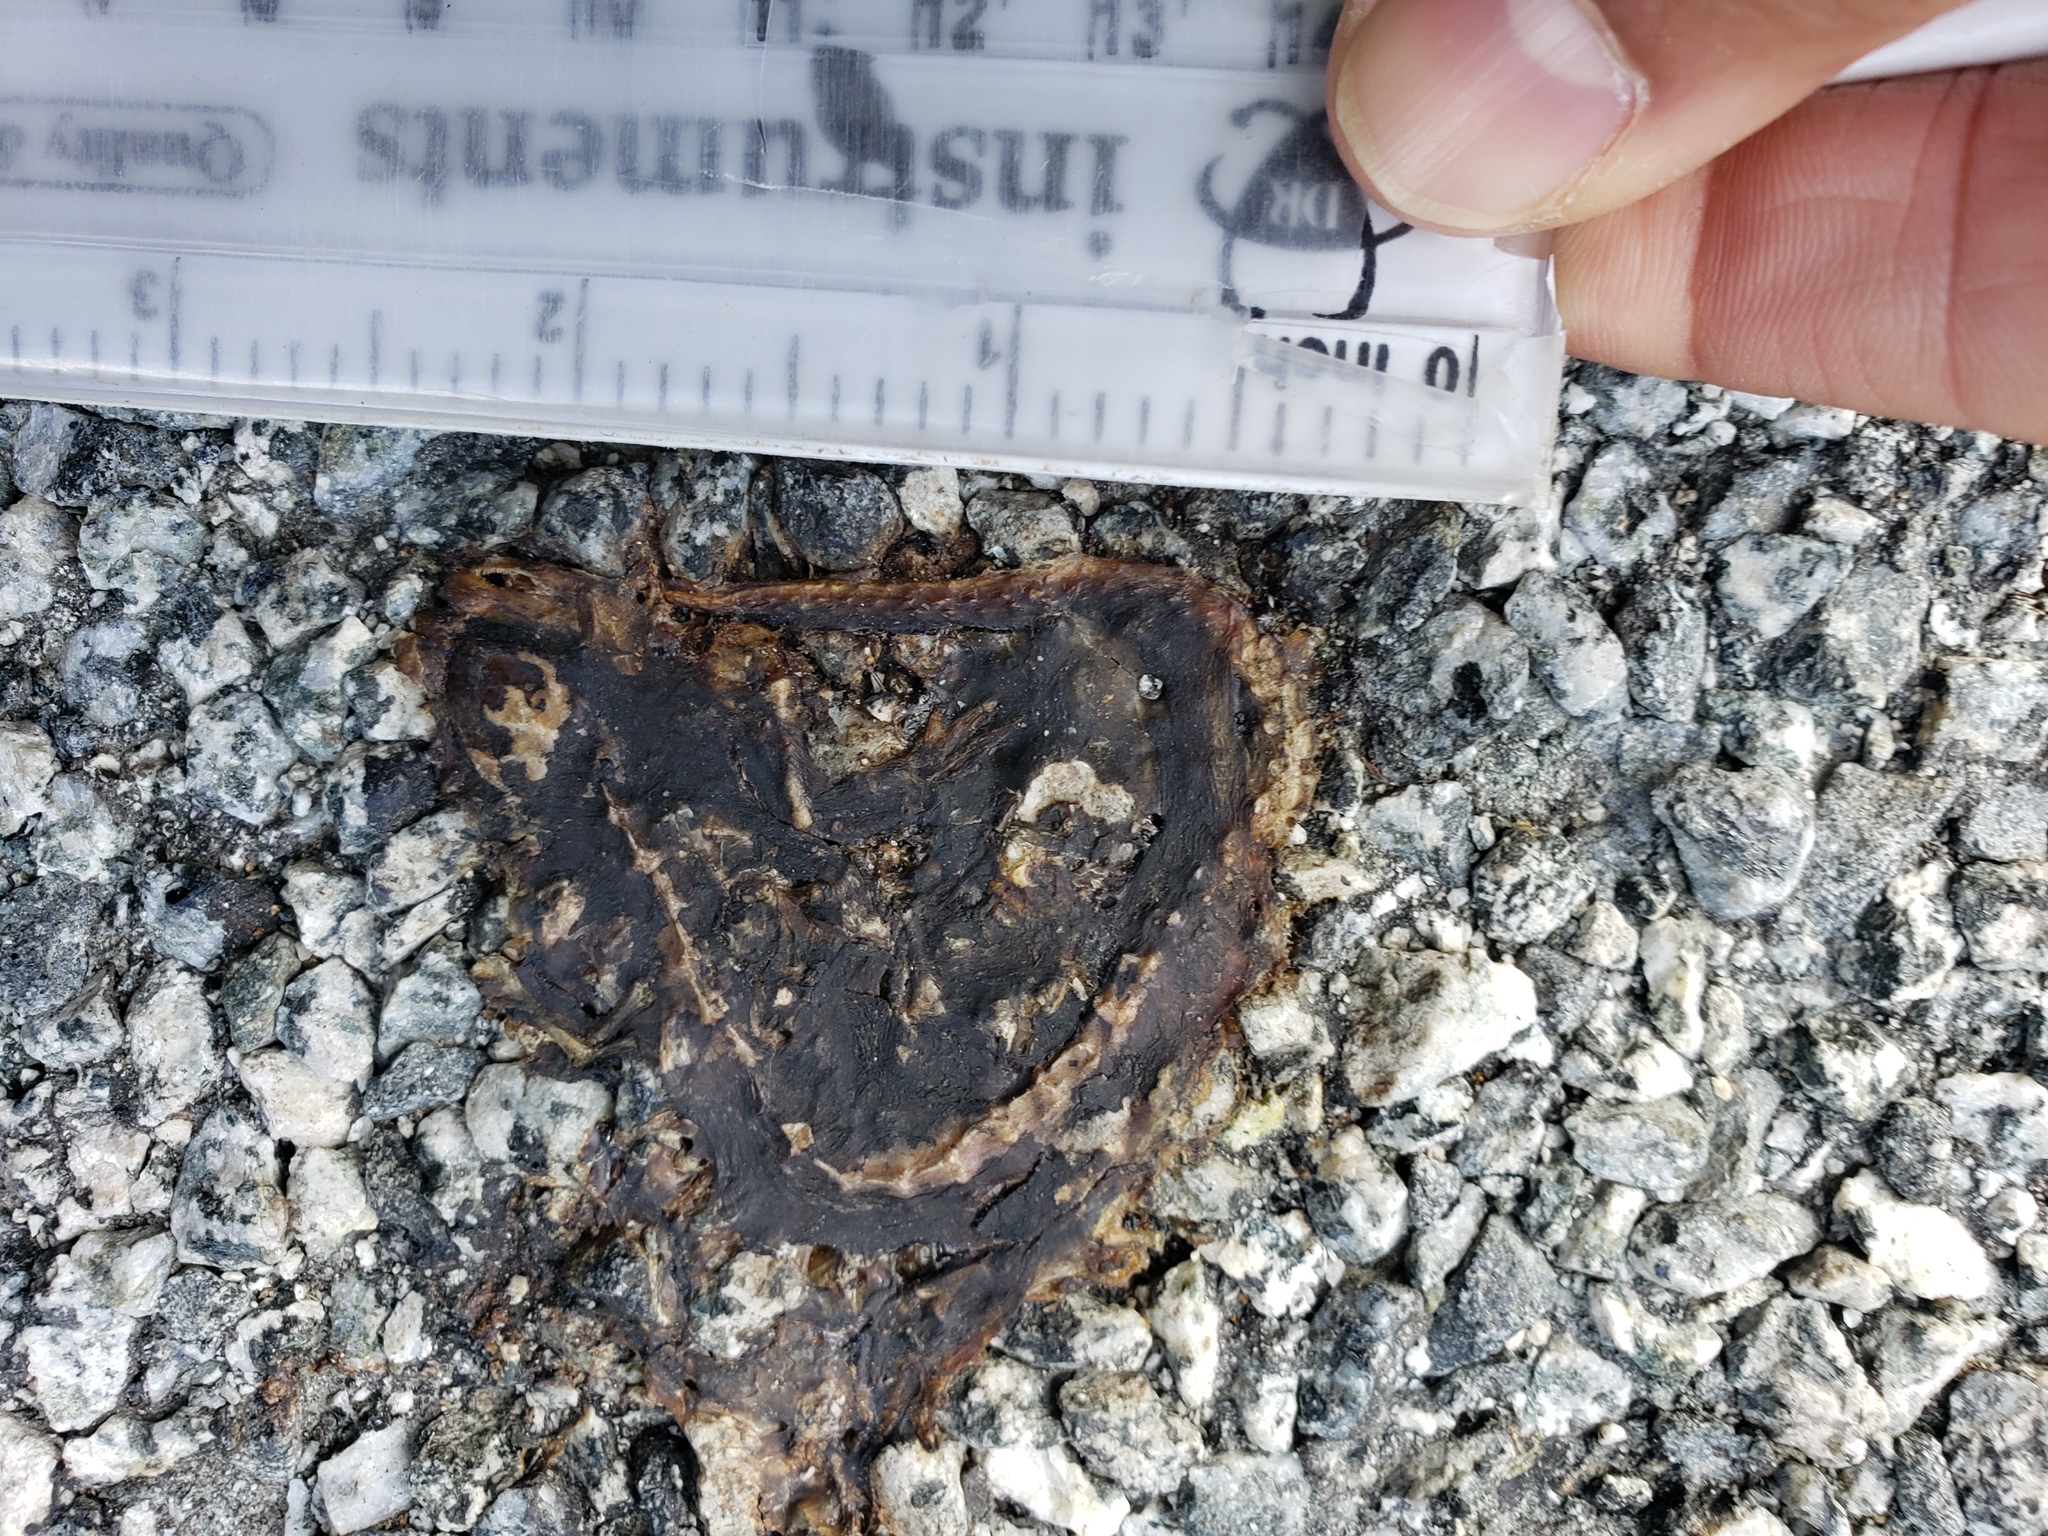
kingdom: Animalia
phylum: Chordata
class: Amphibia
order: Caudata
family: Salamandridae
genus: Taricha
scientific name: Taricha
